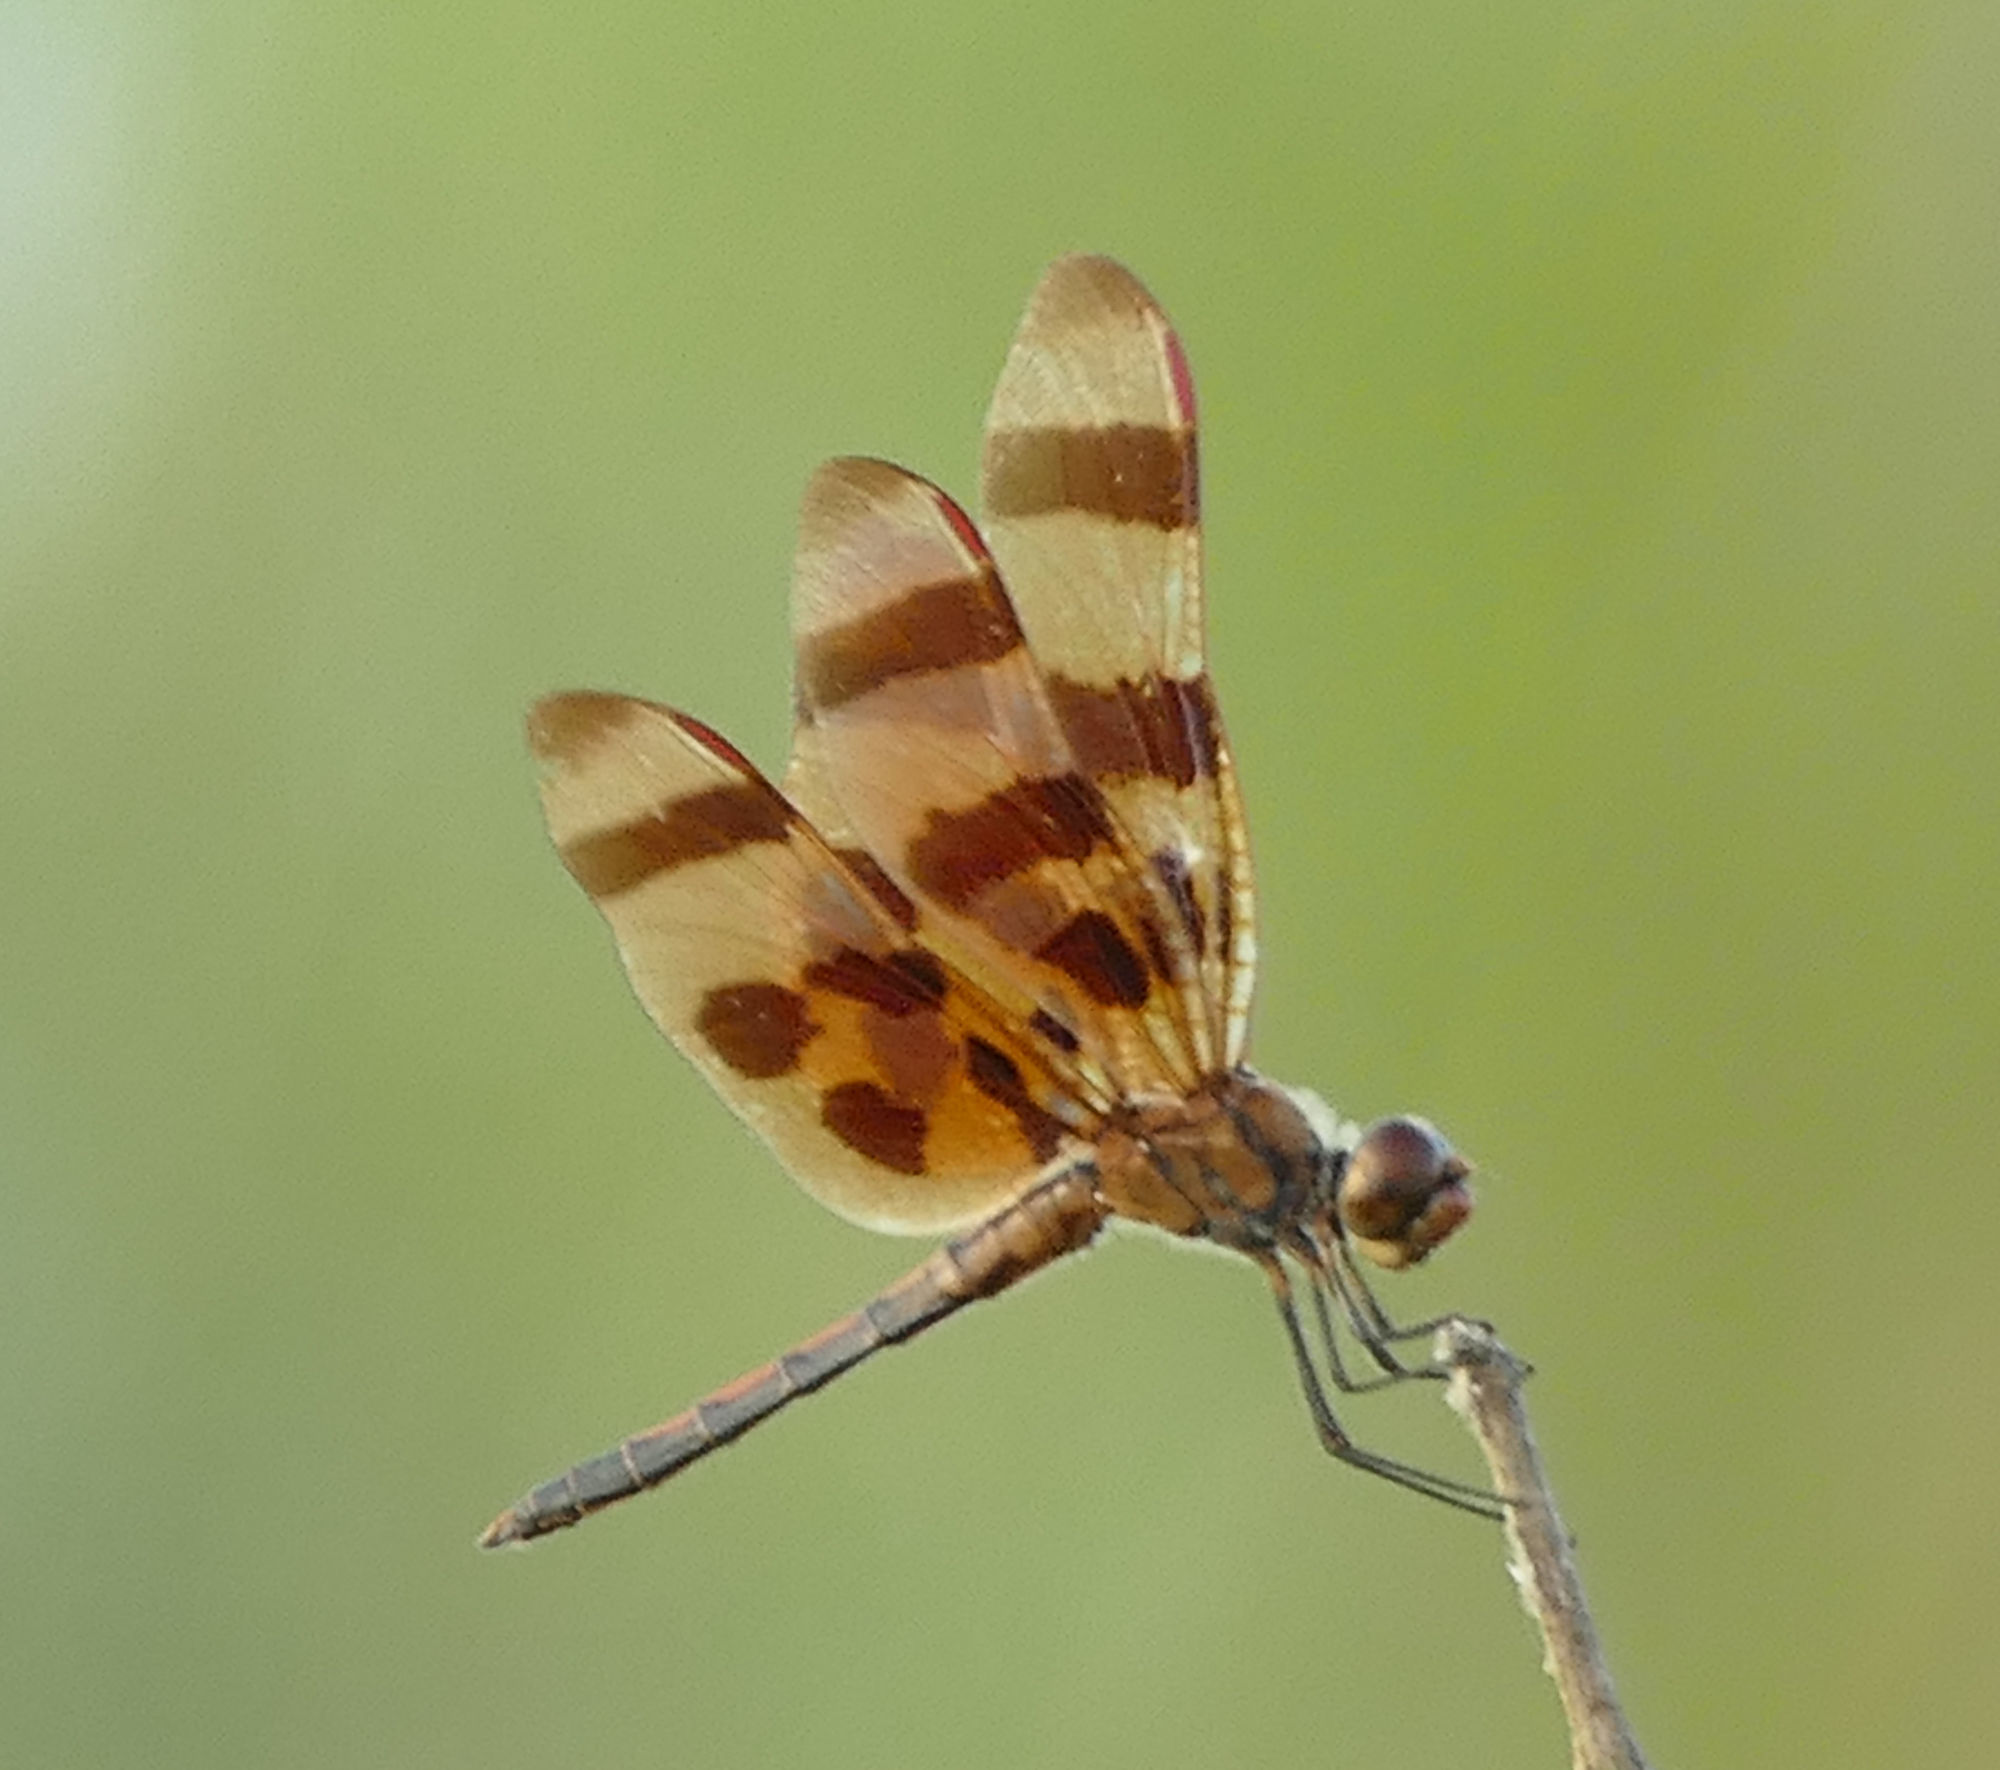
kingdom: Animalia
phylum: Arthropoda
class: Insecta
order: Odonata
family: Libellulidae
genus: Celithemis
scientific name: Celithemis eponina
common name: Halloween pennant
